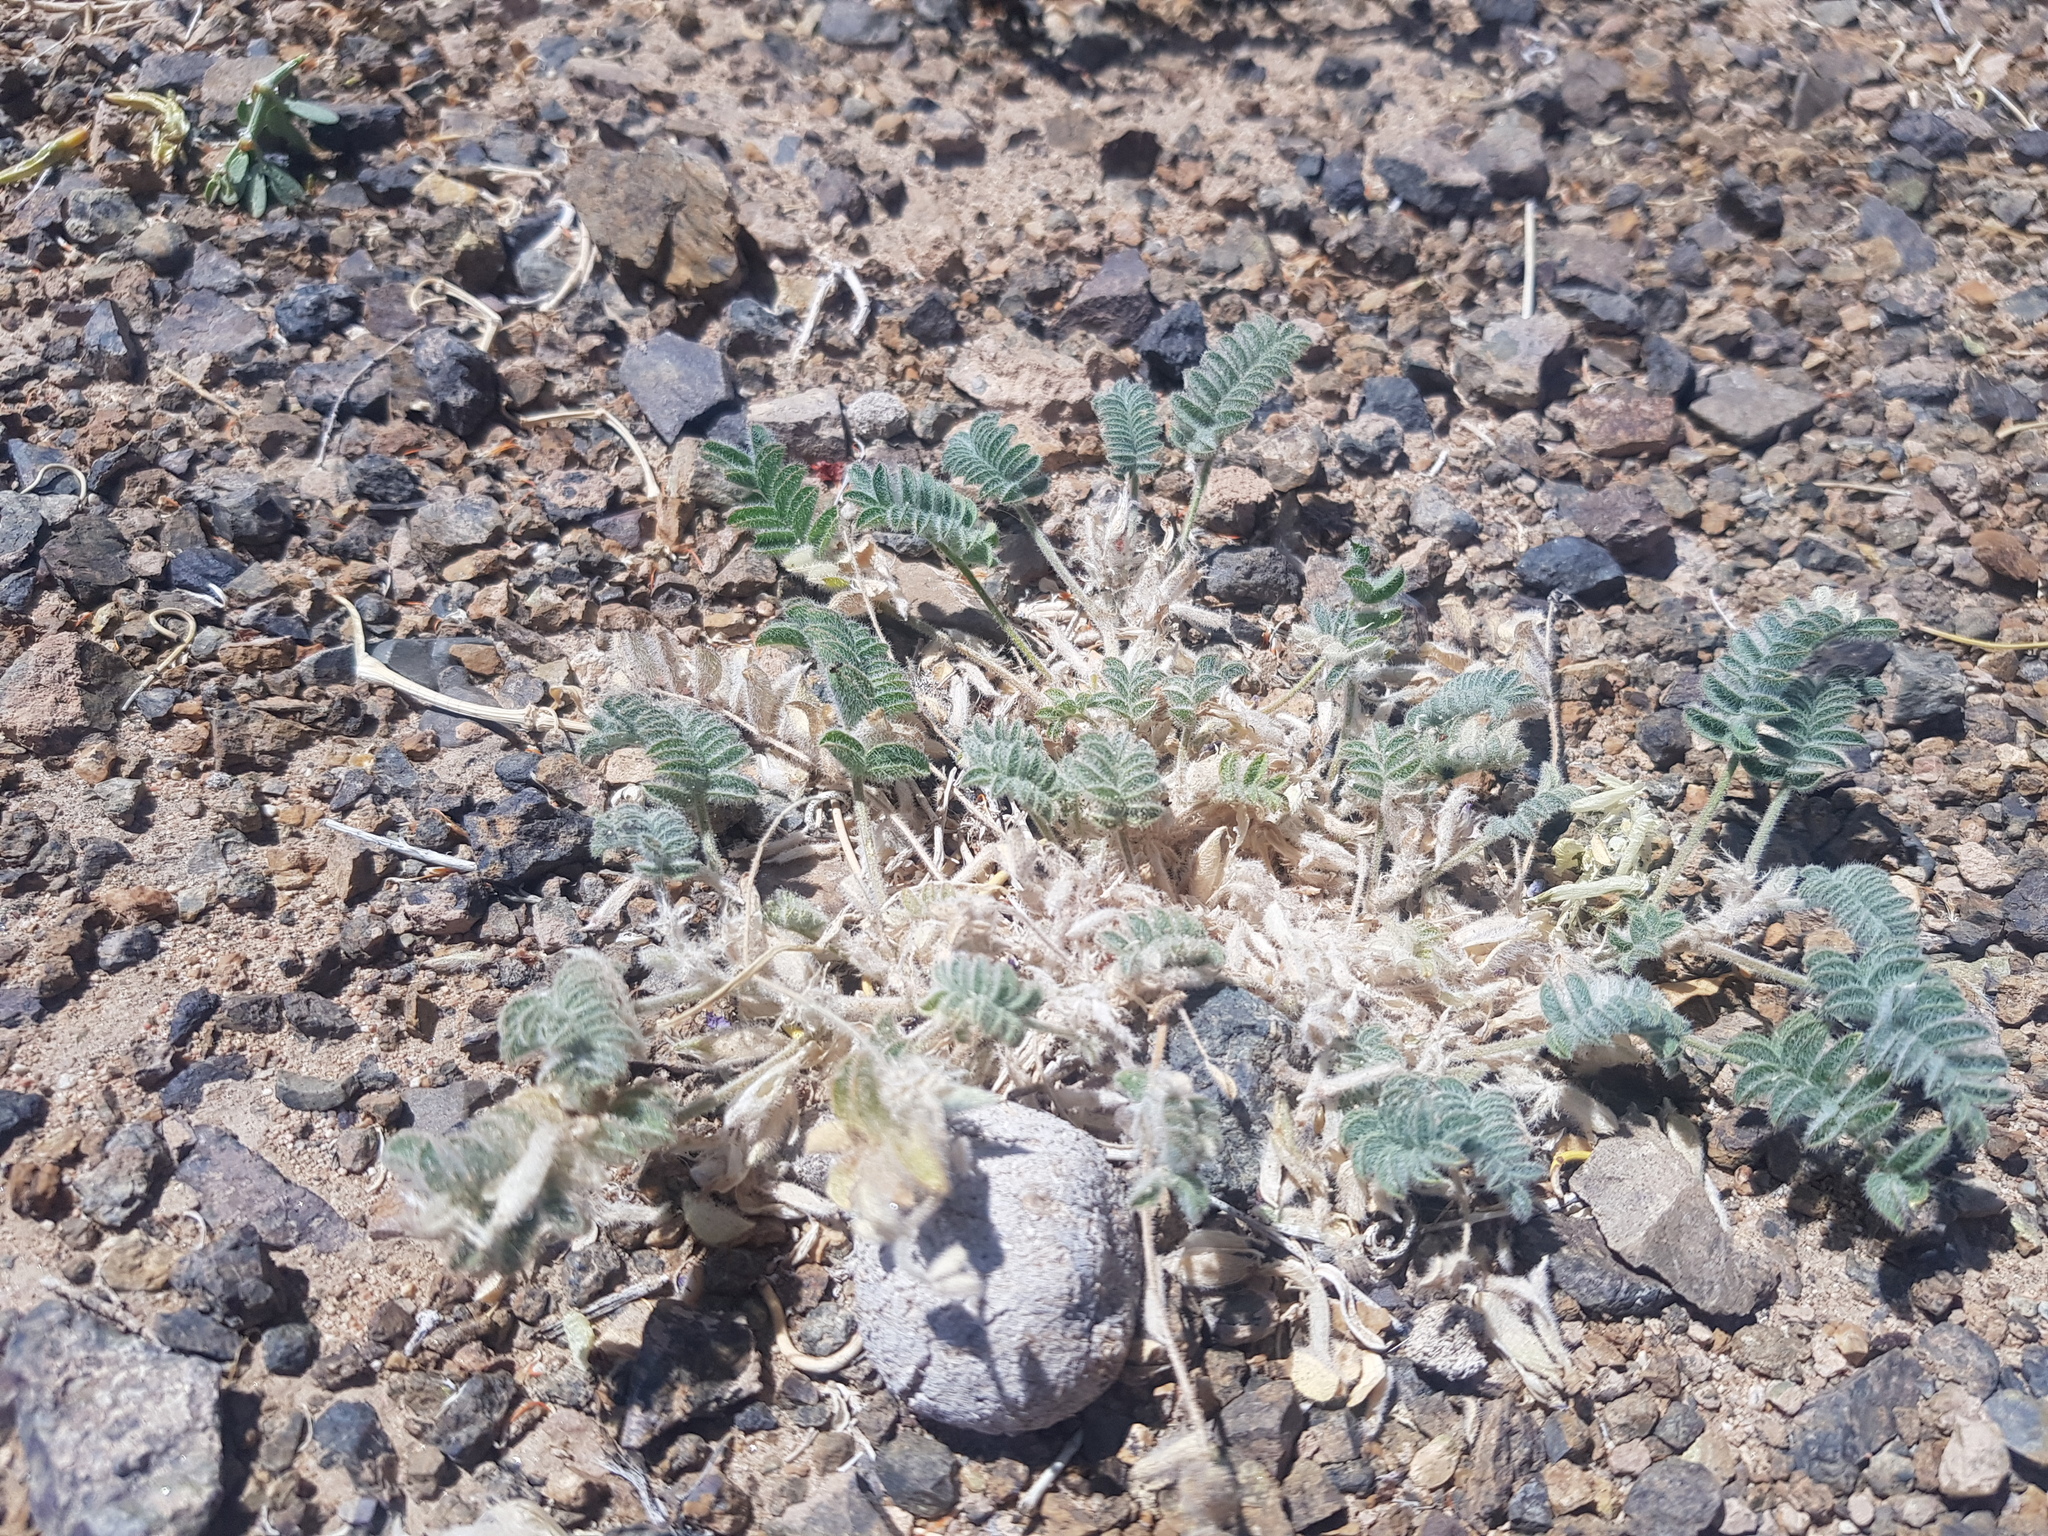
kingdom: Plantae
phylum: Tracheophyta
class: Magnoliopsida
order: Fabales
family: Fabaceae
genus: Astragalus
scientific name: Astragalus grubovii
